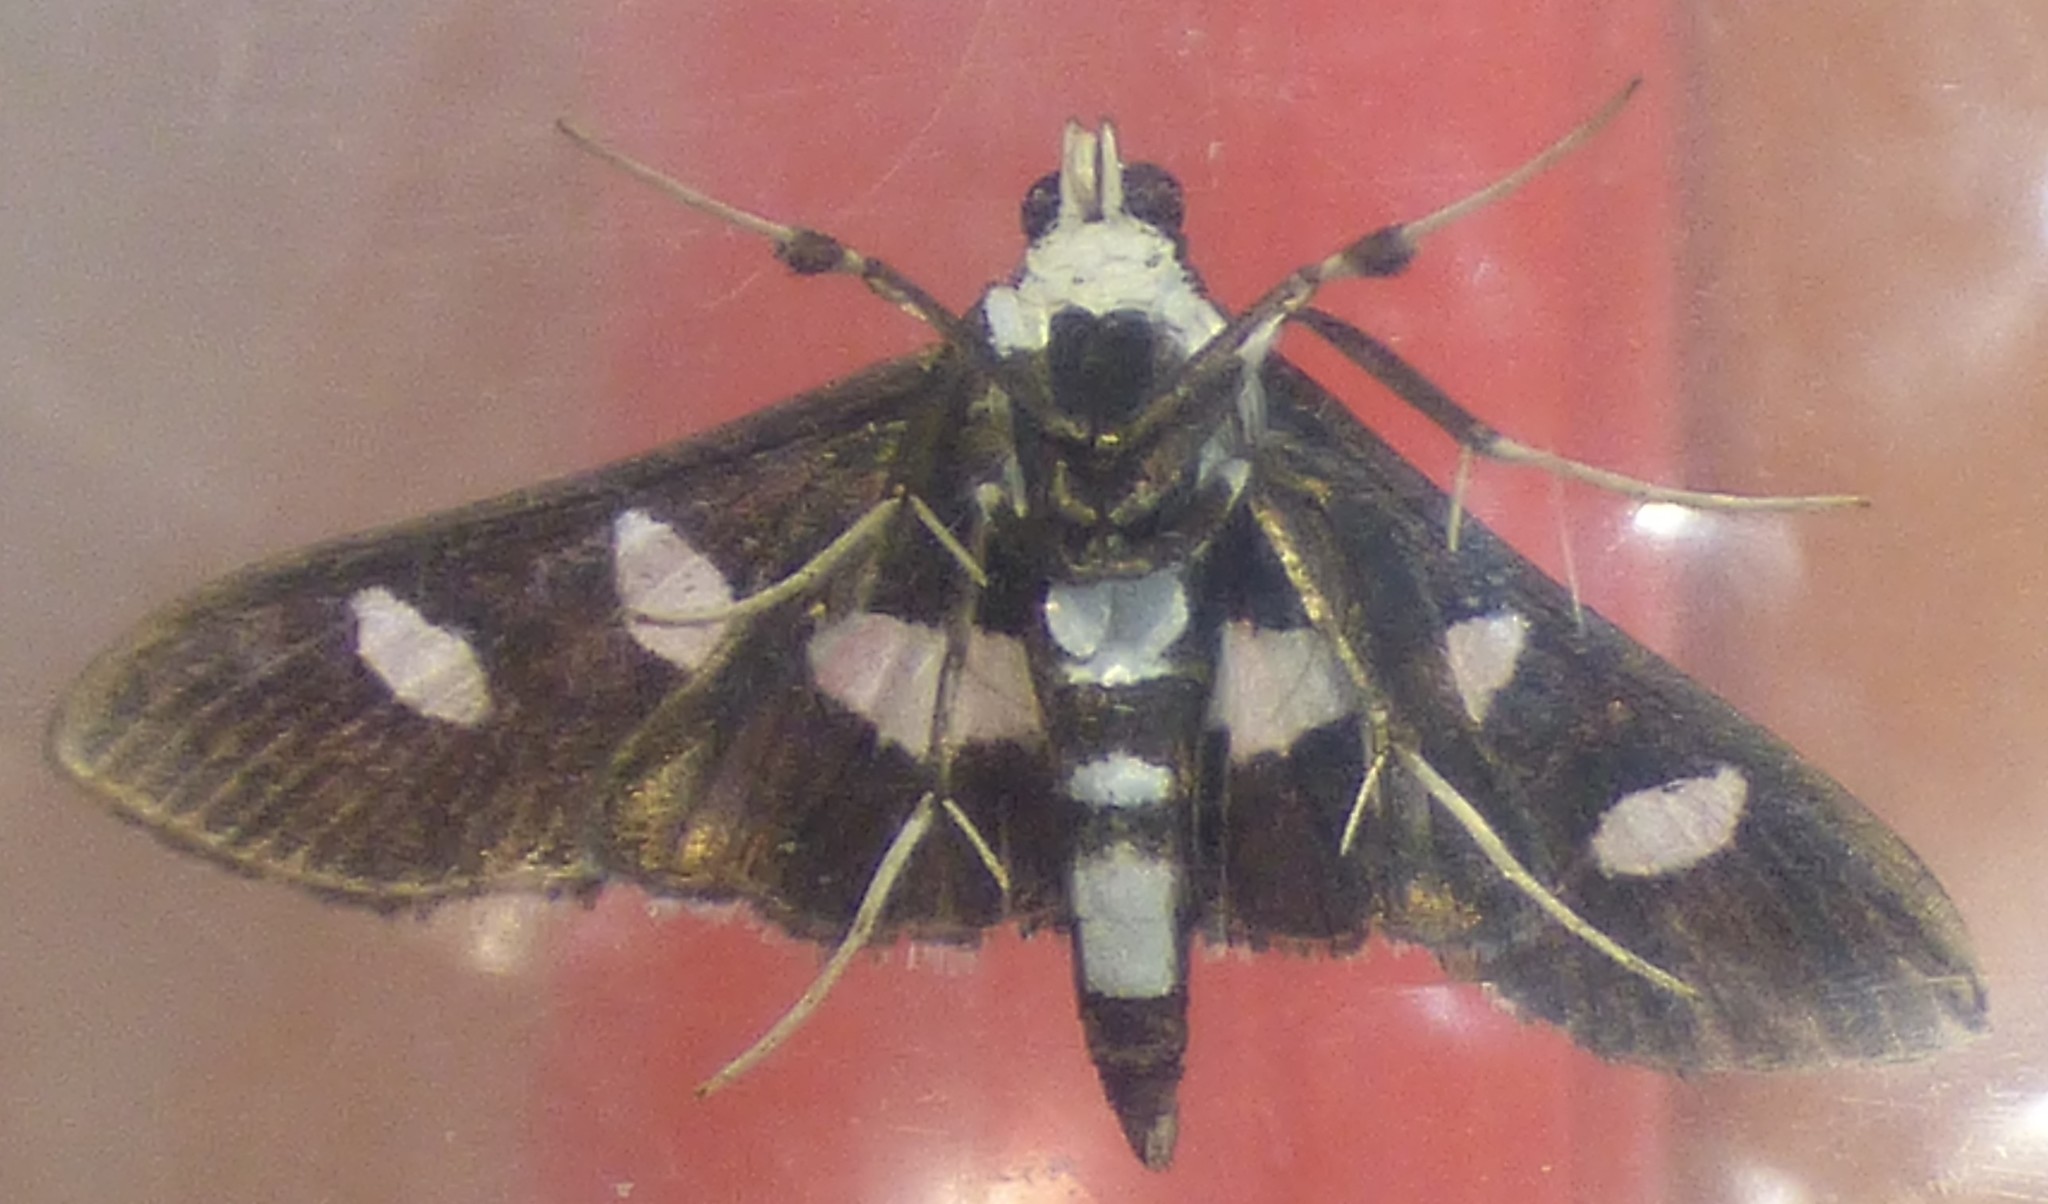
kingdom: Animalia
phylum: Arthropoda
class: Insecta
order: Lepidoptera
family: Crambidae
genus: Desmia
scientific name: Desmia funeralis
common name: Grape leaf folder moth
